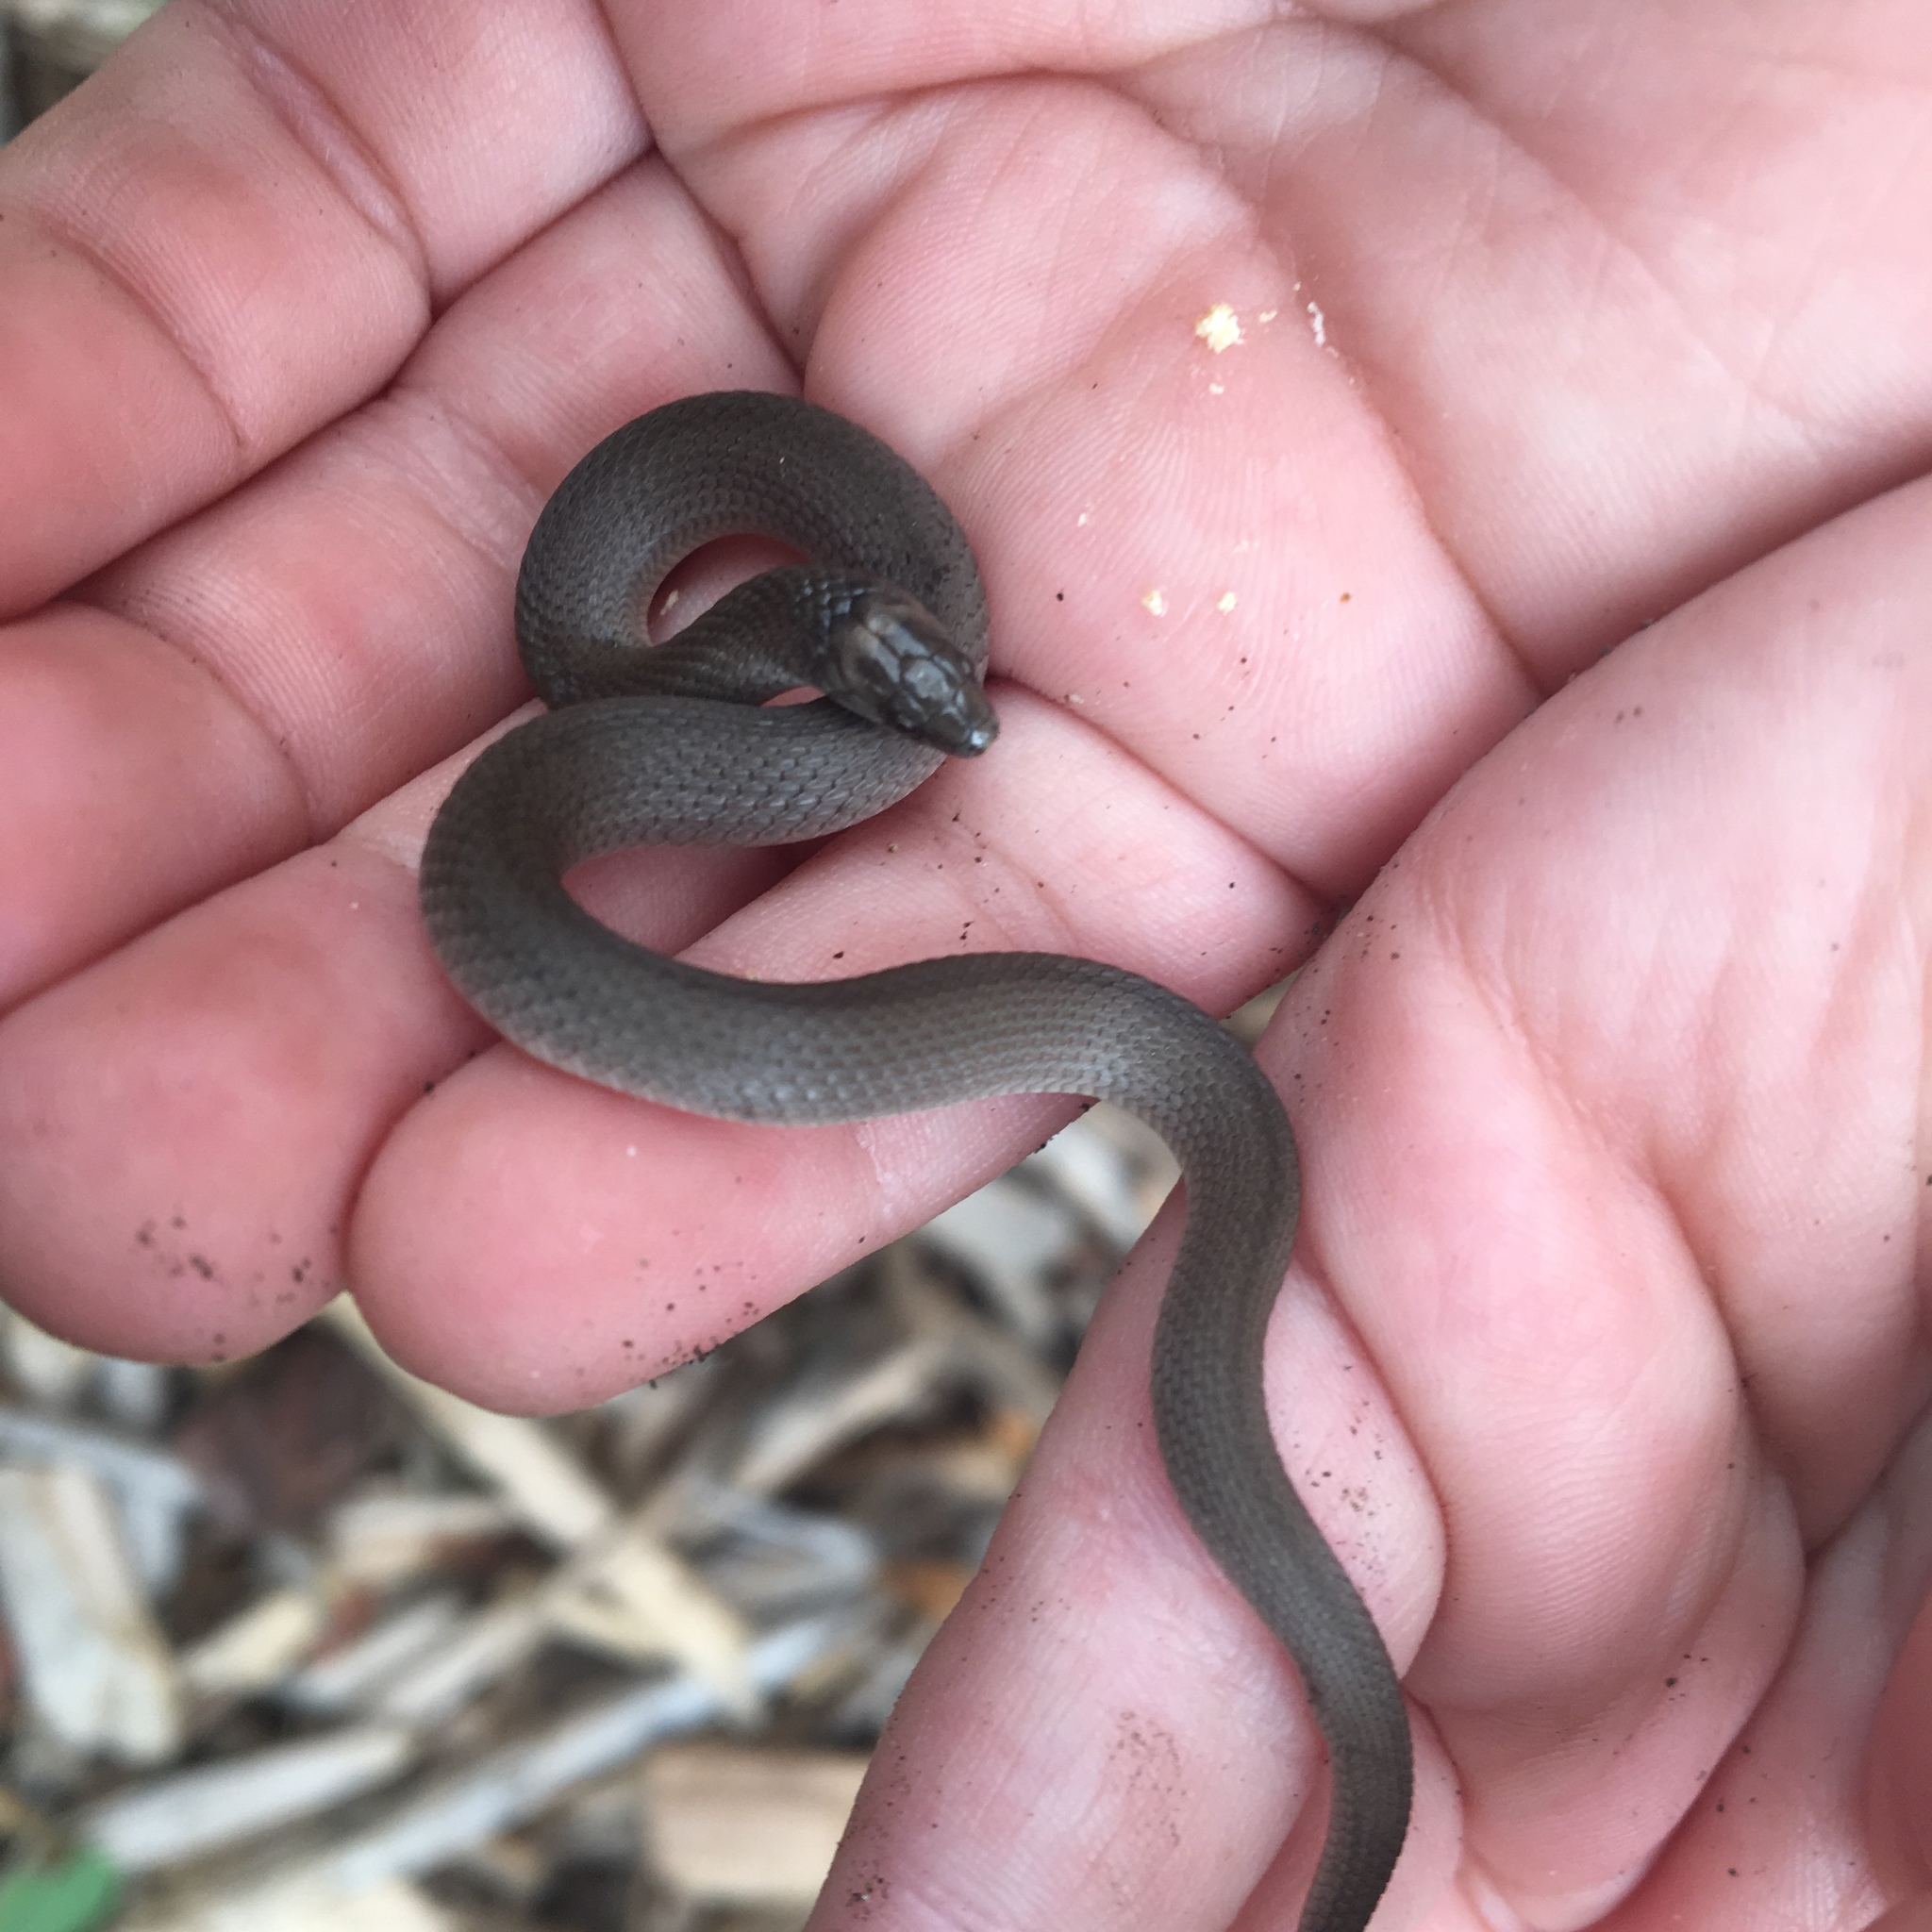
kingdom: Animalia
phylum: Chordata
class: Squamata
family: Colubridae
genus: Haldea
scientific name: Haldea striatula
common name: Rough earth snake
